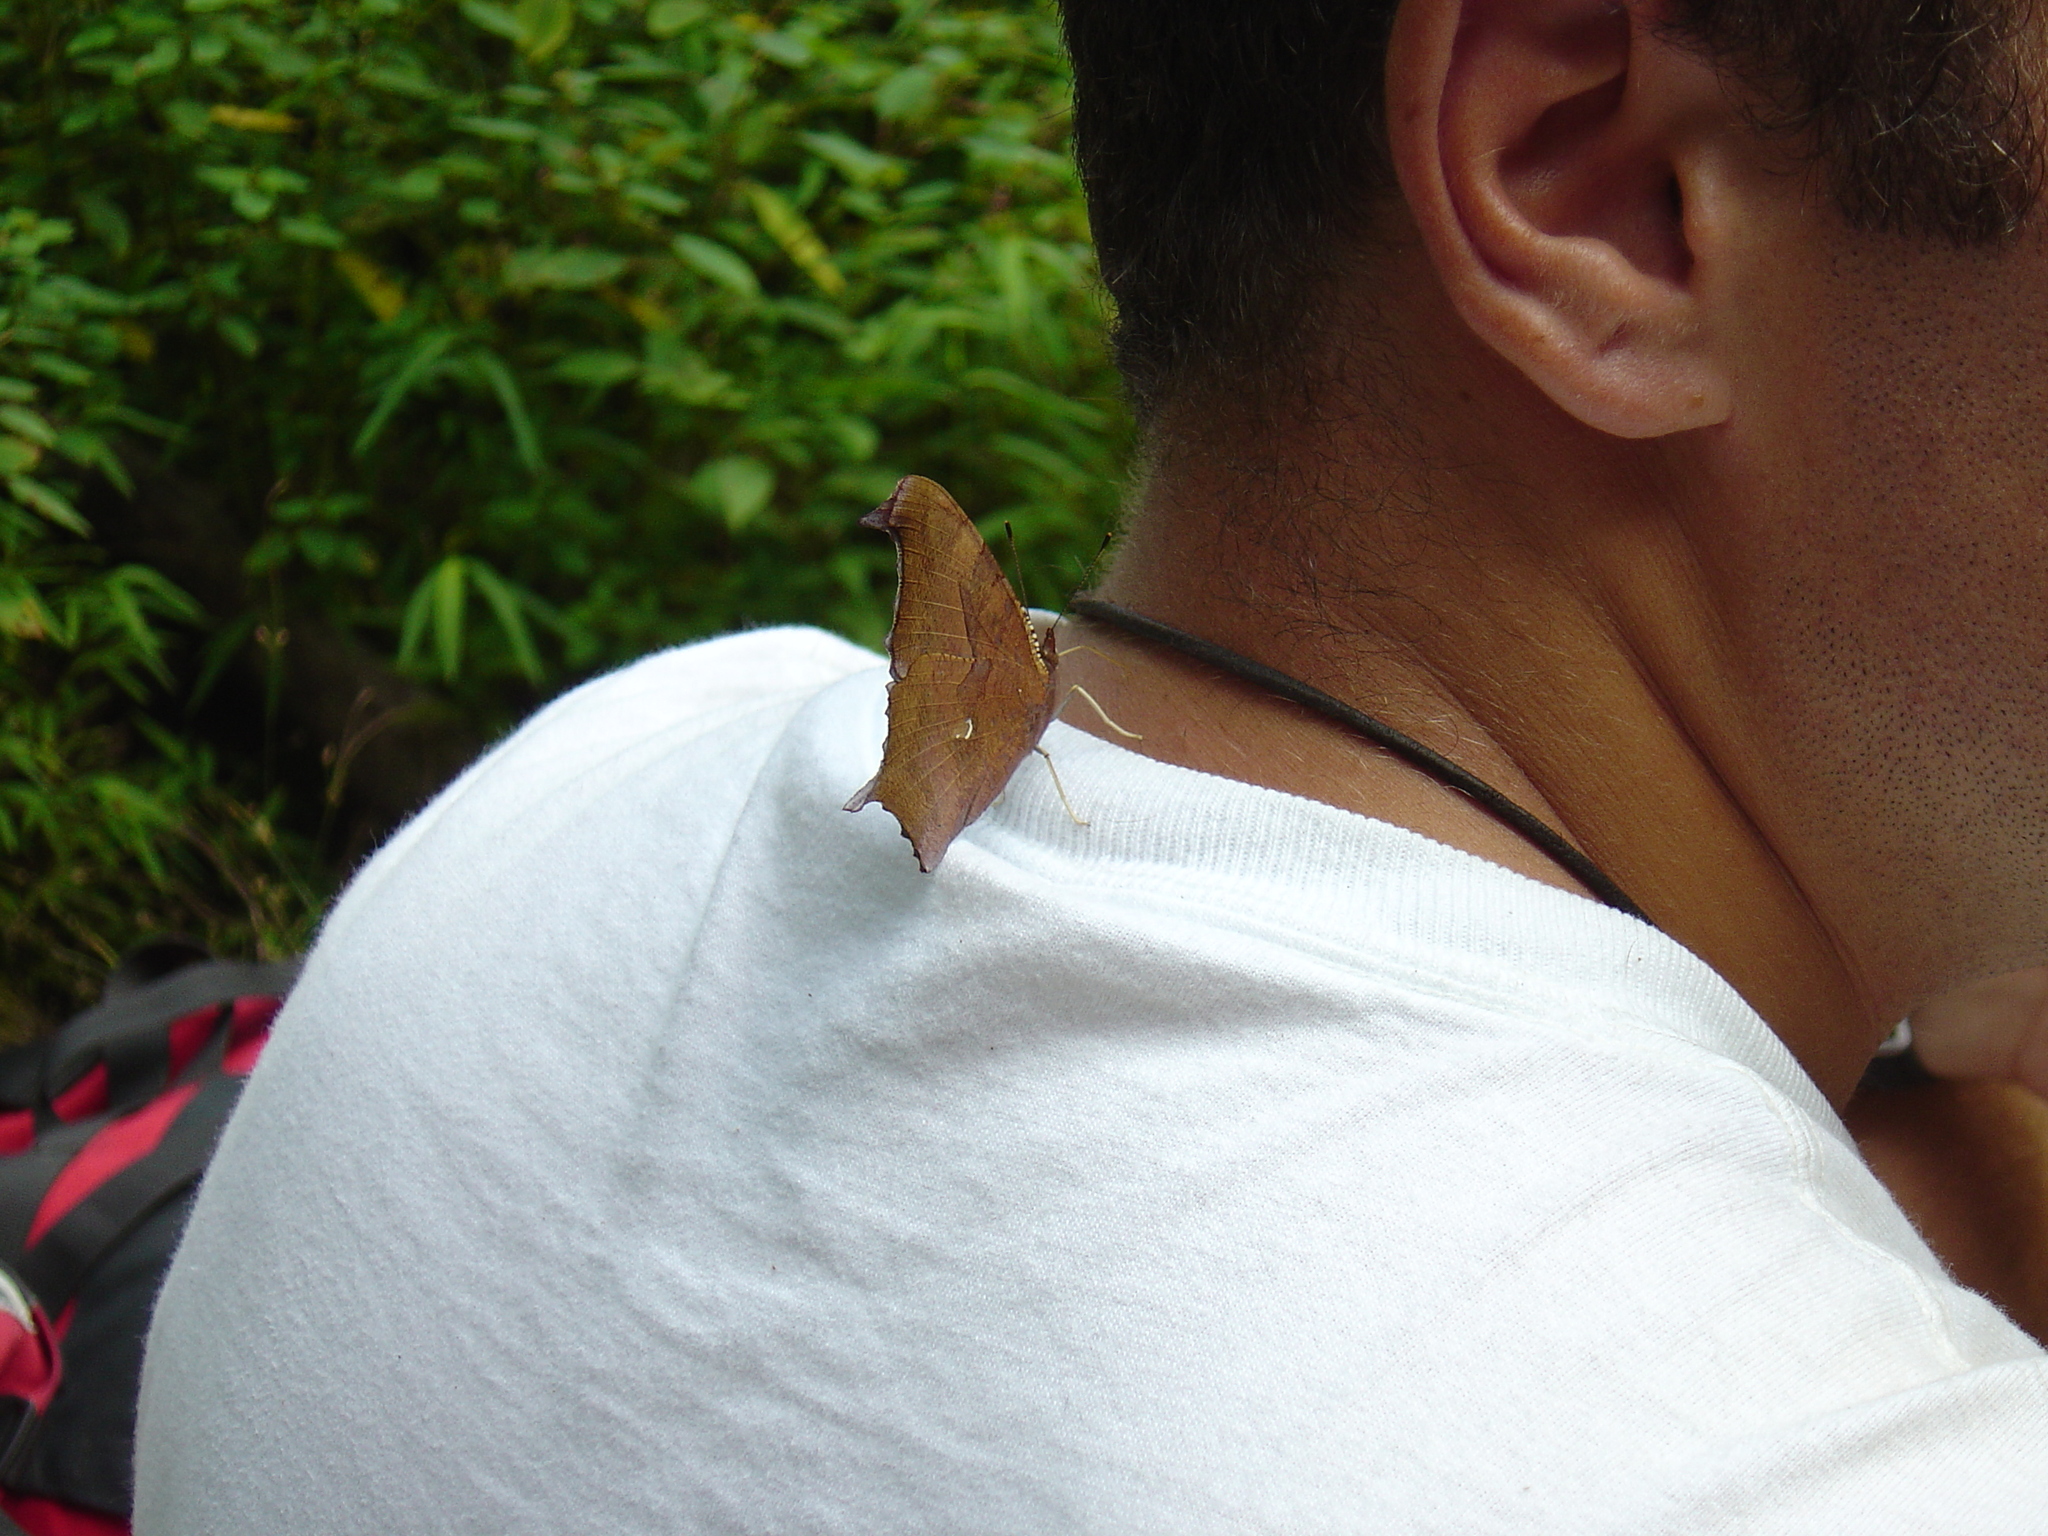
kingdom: Animalia
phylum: Arthropoda
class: Insecta
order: Lepidoptera
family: Nymphalidae
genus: Polygonia
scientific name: Polygonia interrogationis
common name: Question mark
